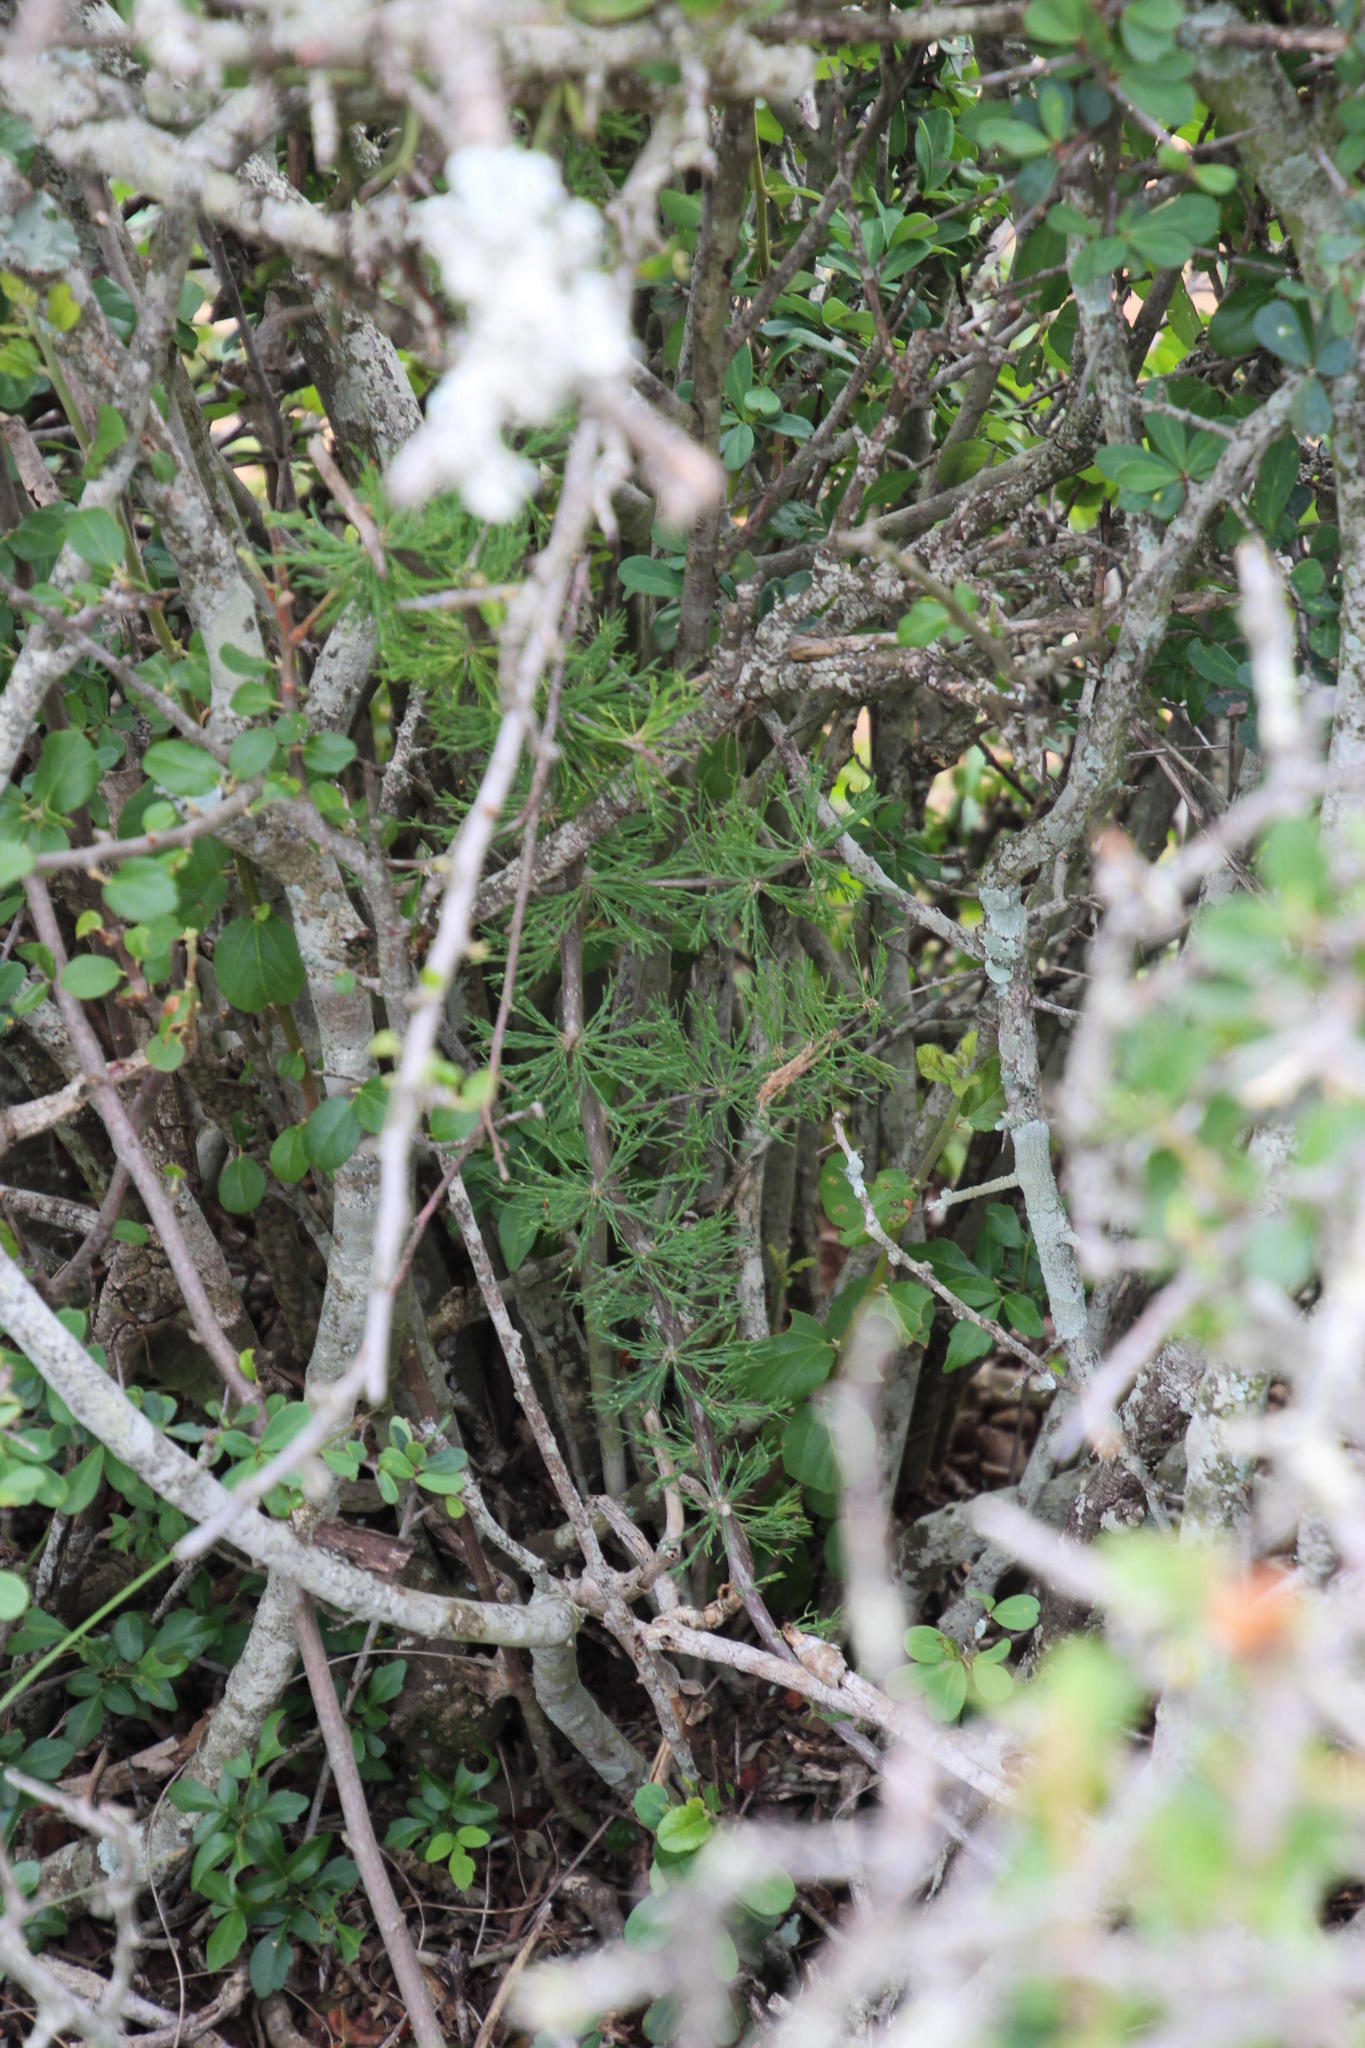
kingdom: Plantae
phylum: Tracheophyta
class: Liliopsida
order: Asparagales
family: Asparagaceae
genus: Asparagus
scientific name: Asparagus suaveolens
